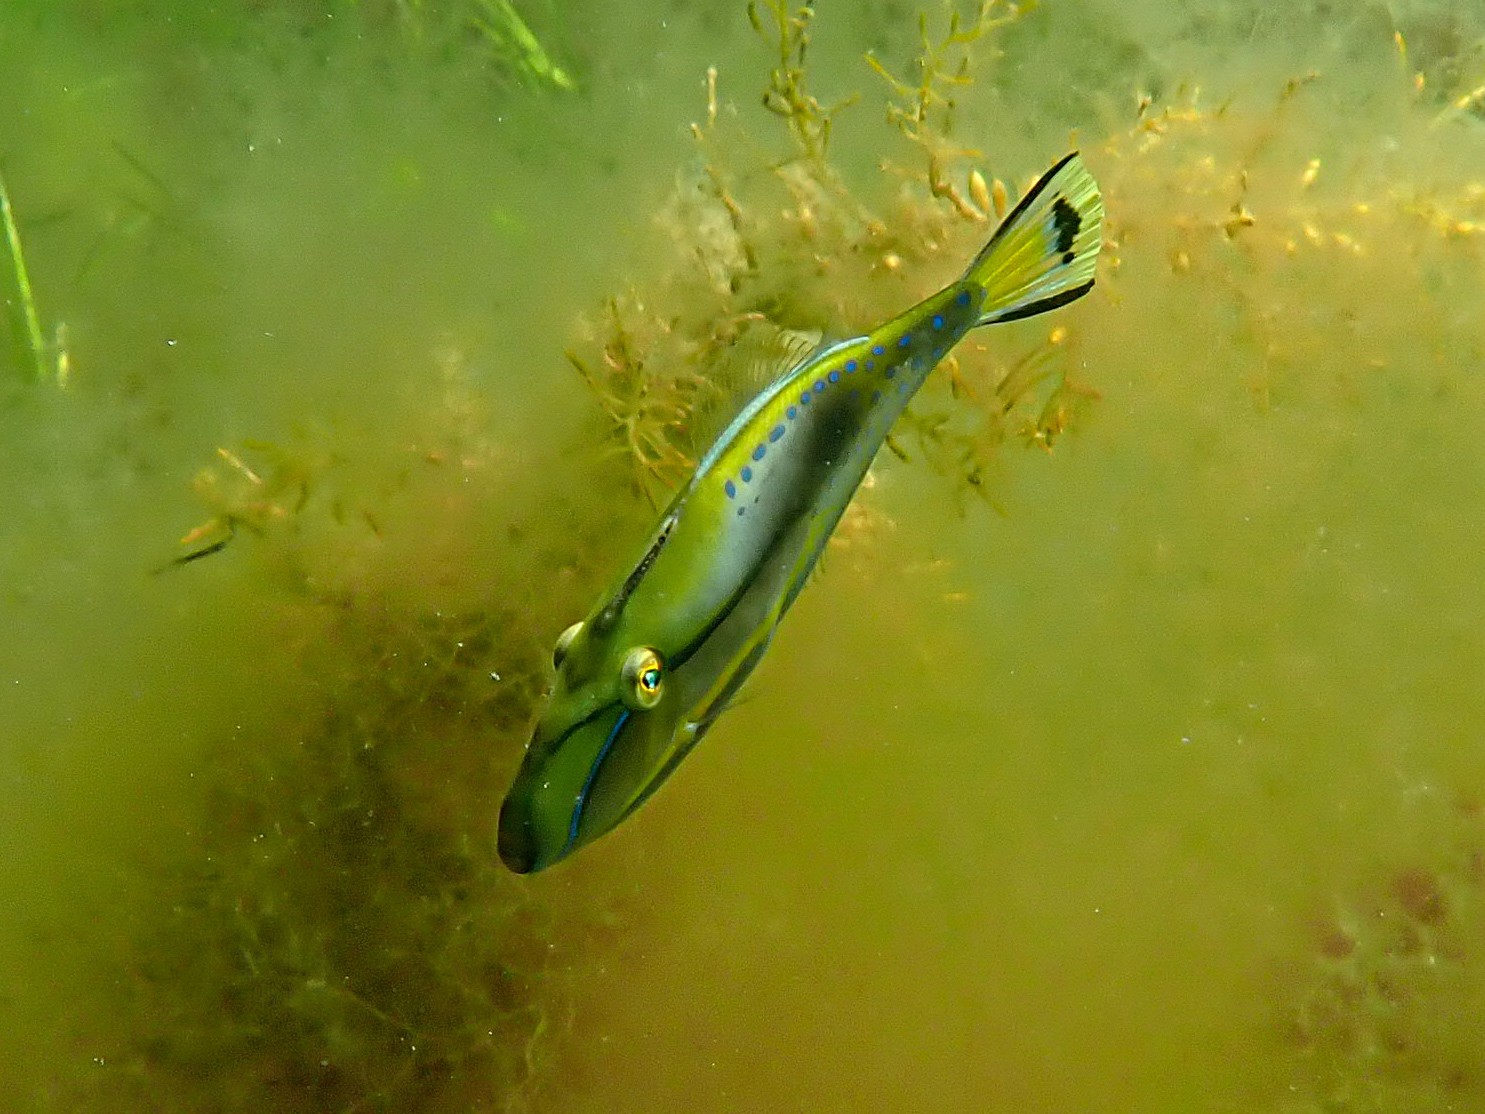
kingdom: Animalia
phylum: Chordata
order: Tetraodontiformes
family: Monacanthidae
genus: Acanthaluteres
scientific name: Acanthaluteres spilomelanurus
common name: Bridled leatherjacket
